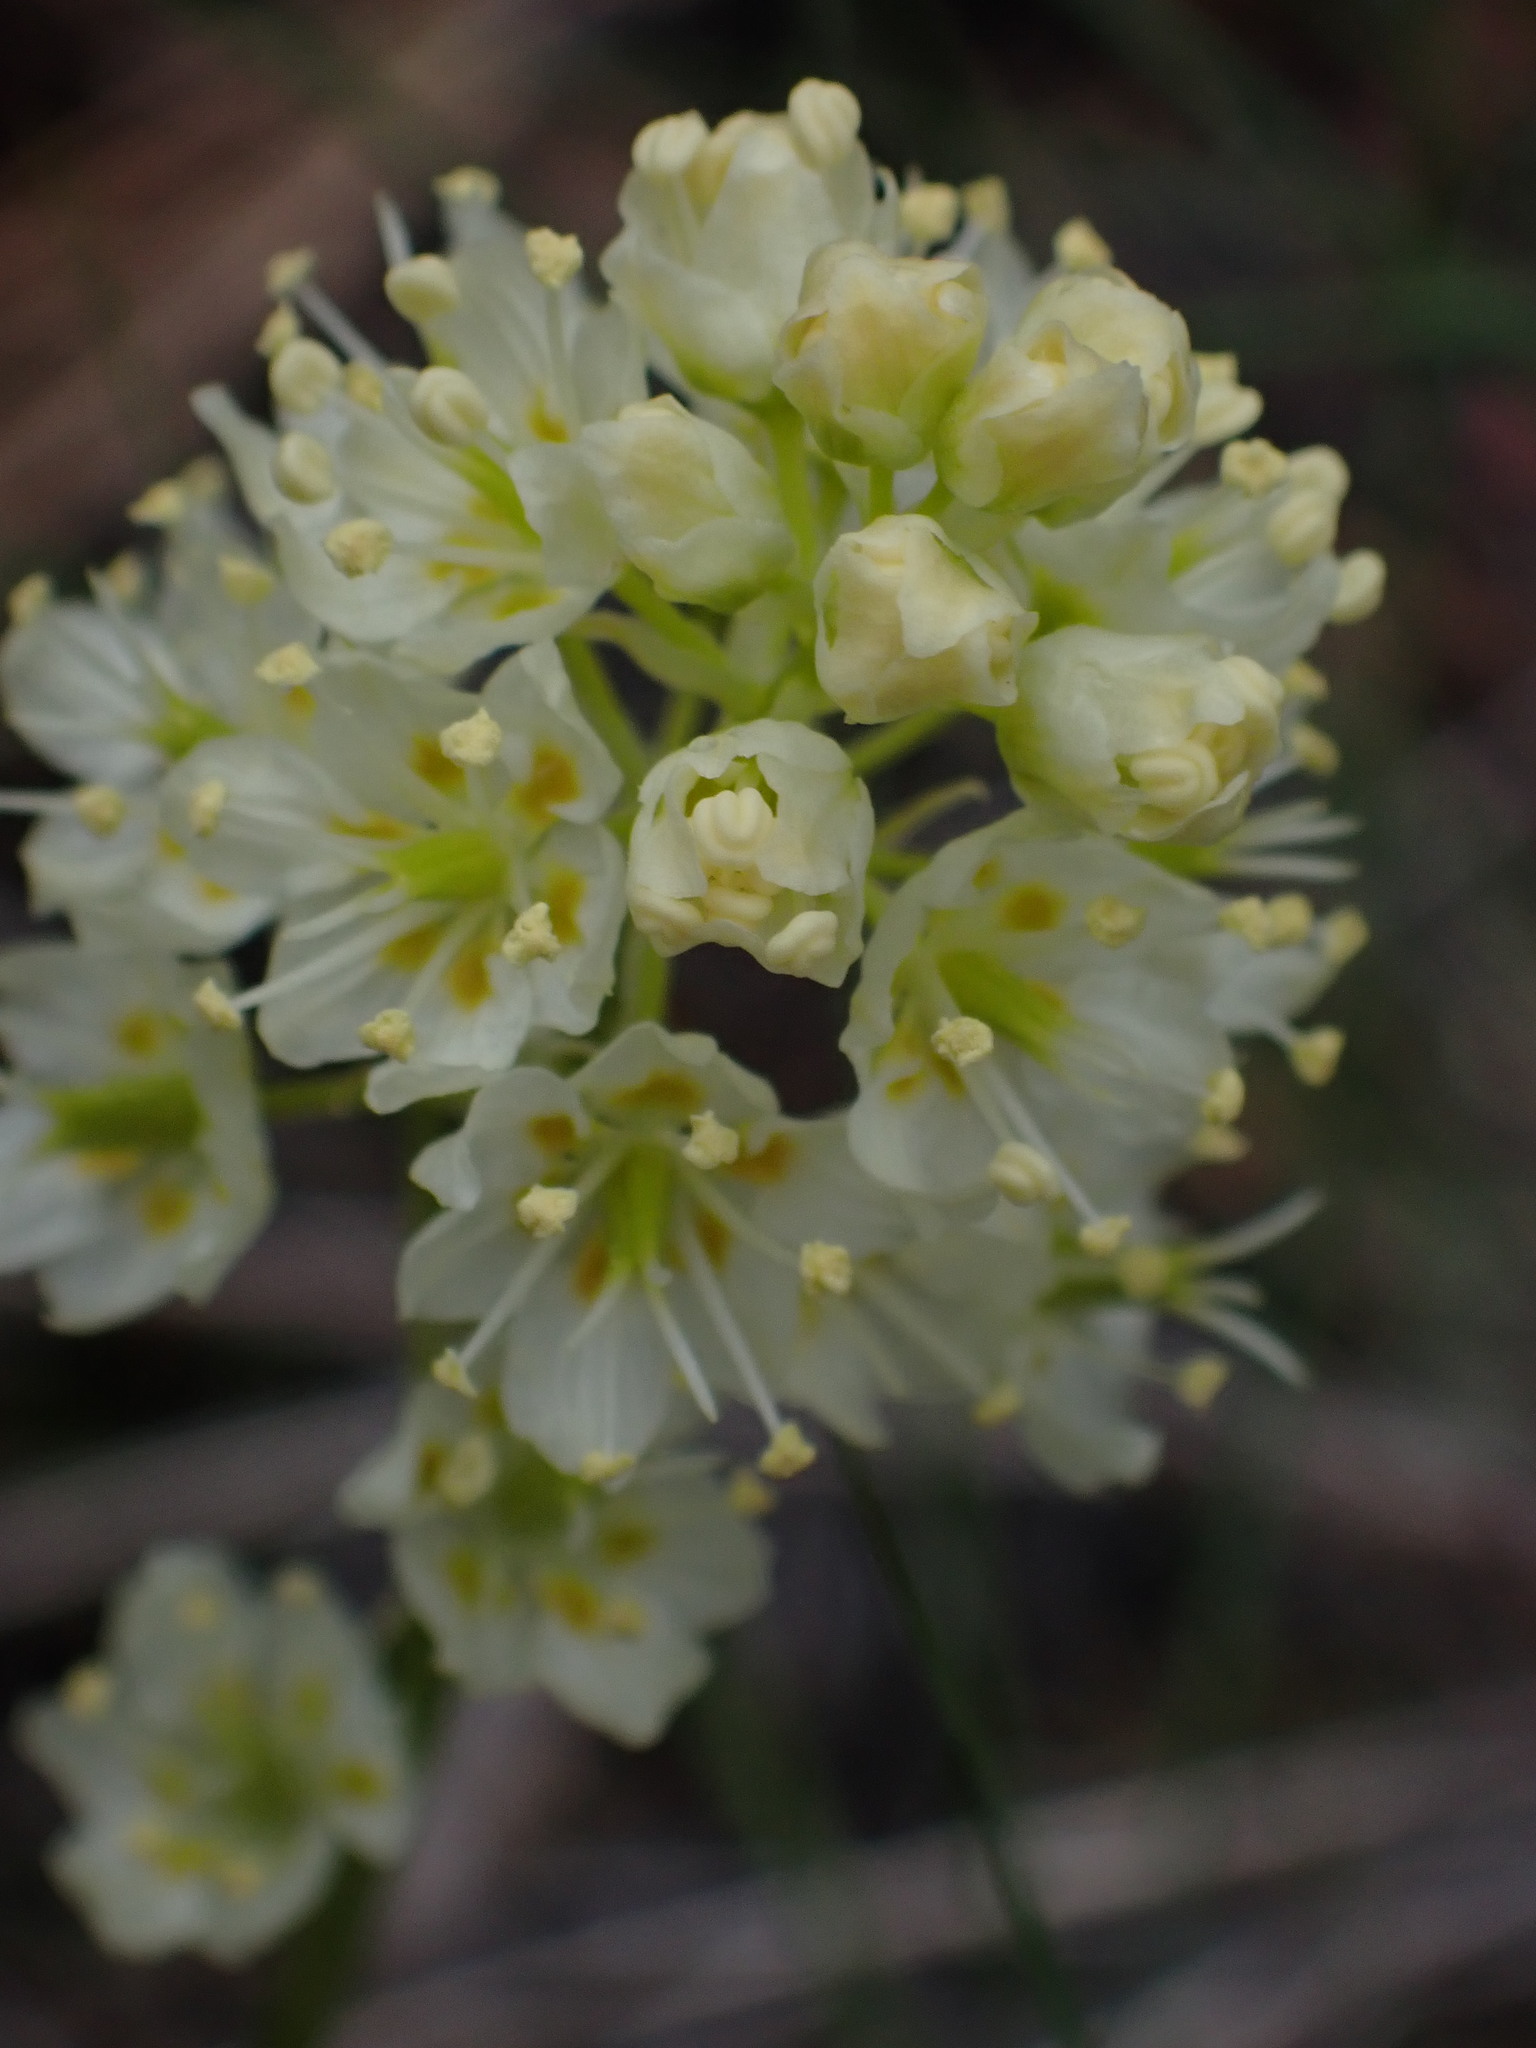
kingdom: Plantae
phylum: Tracheophyta
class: Liliopsida
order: Liliales
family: Melanthiaceae
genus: Toxicoscordion
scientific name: Toxicoscordion venenosum
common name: Meadow death camas
